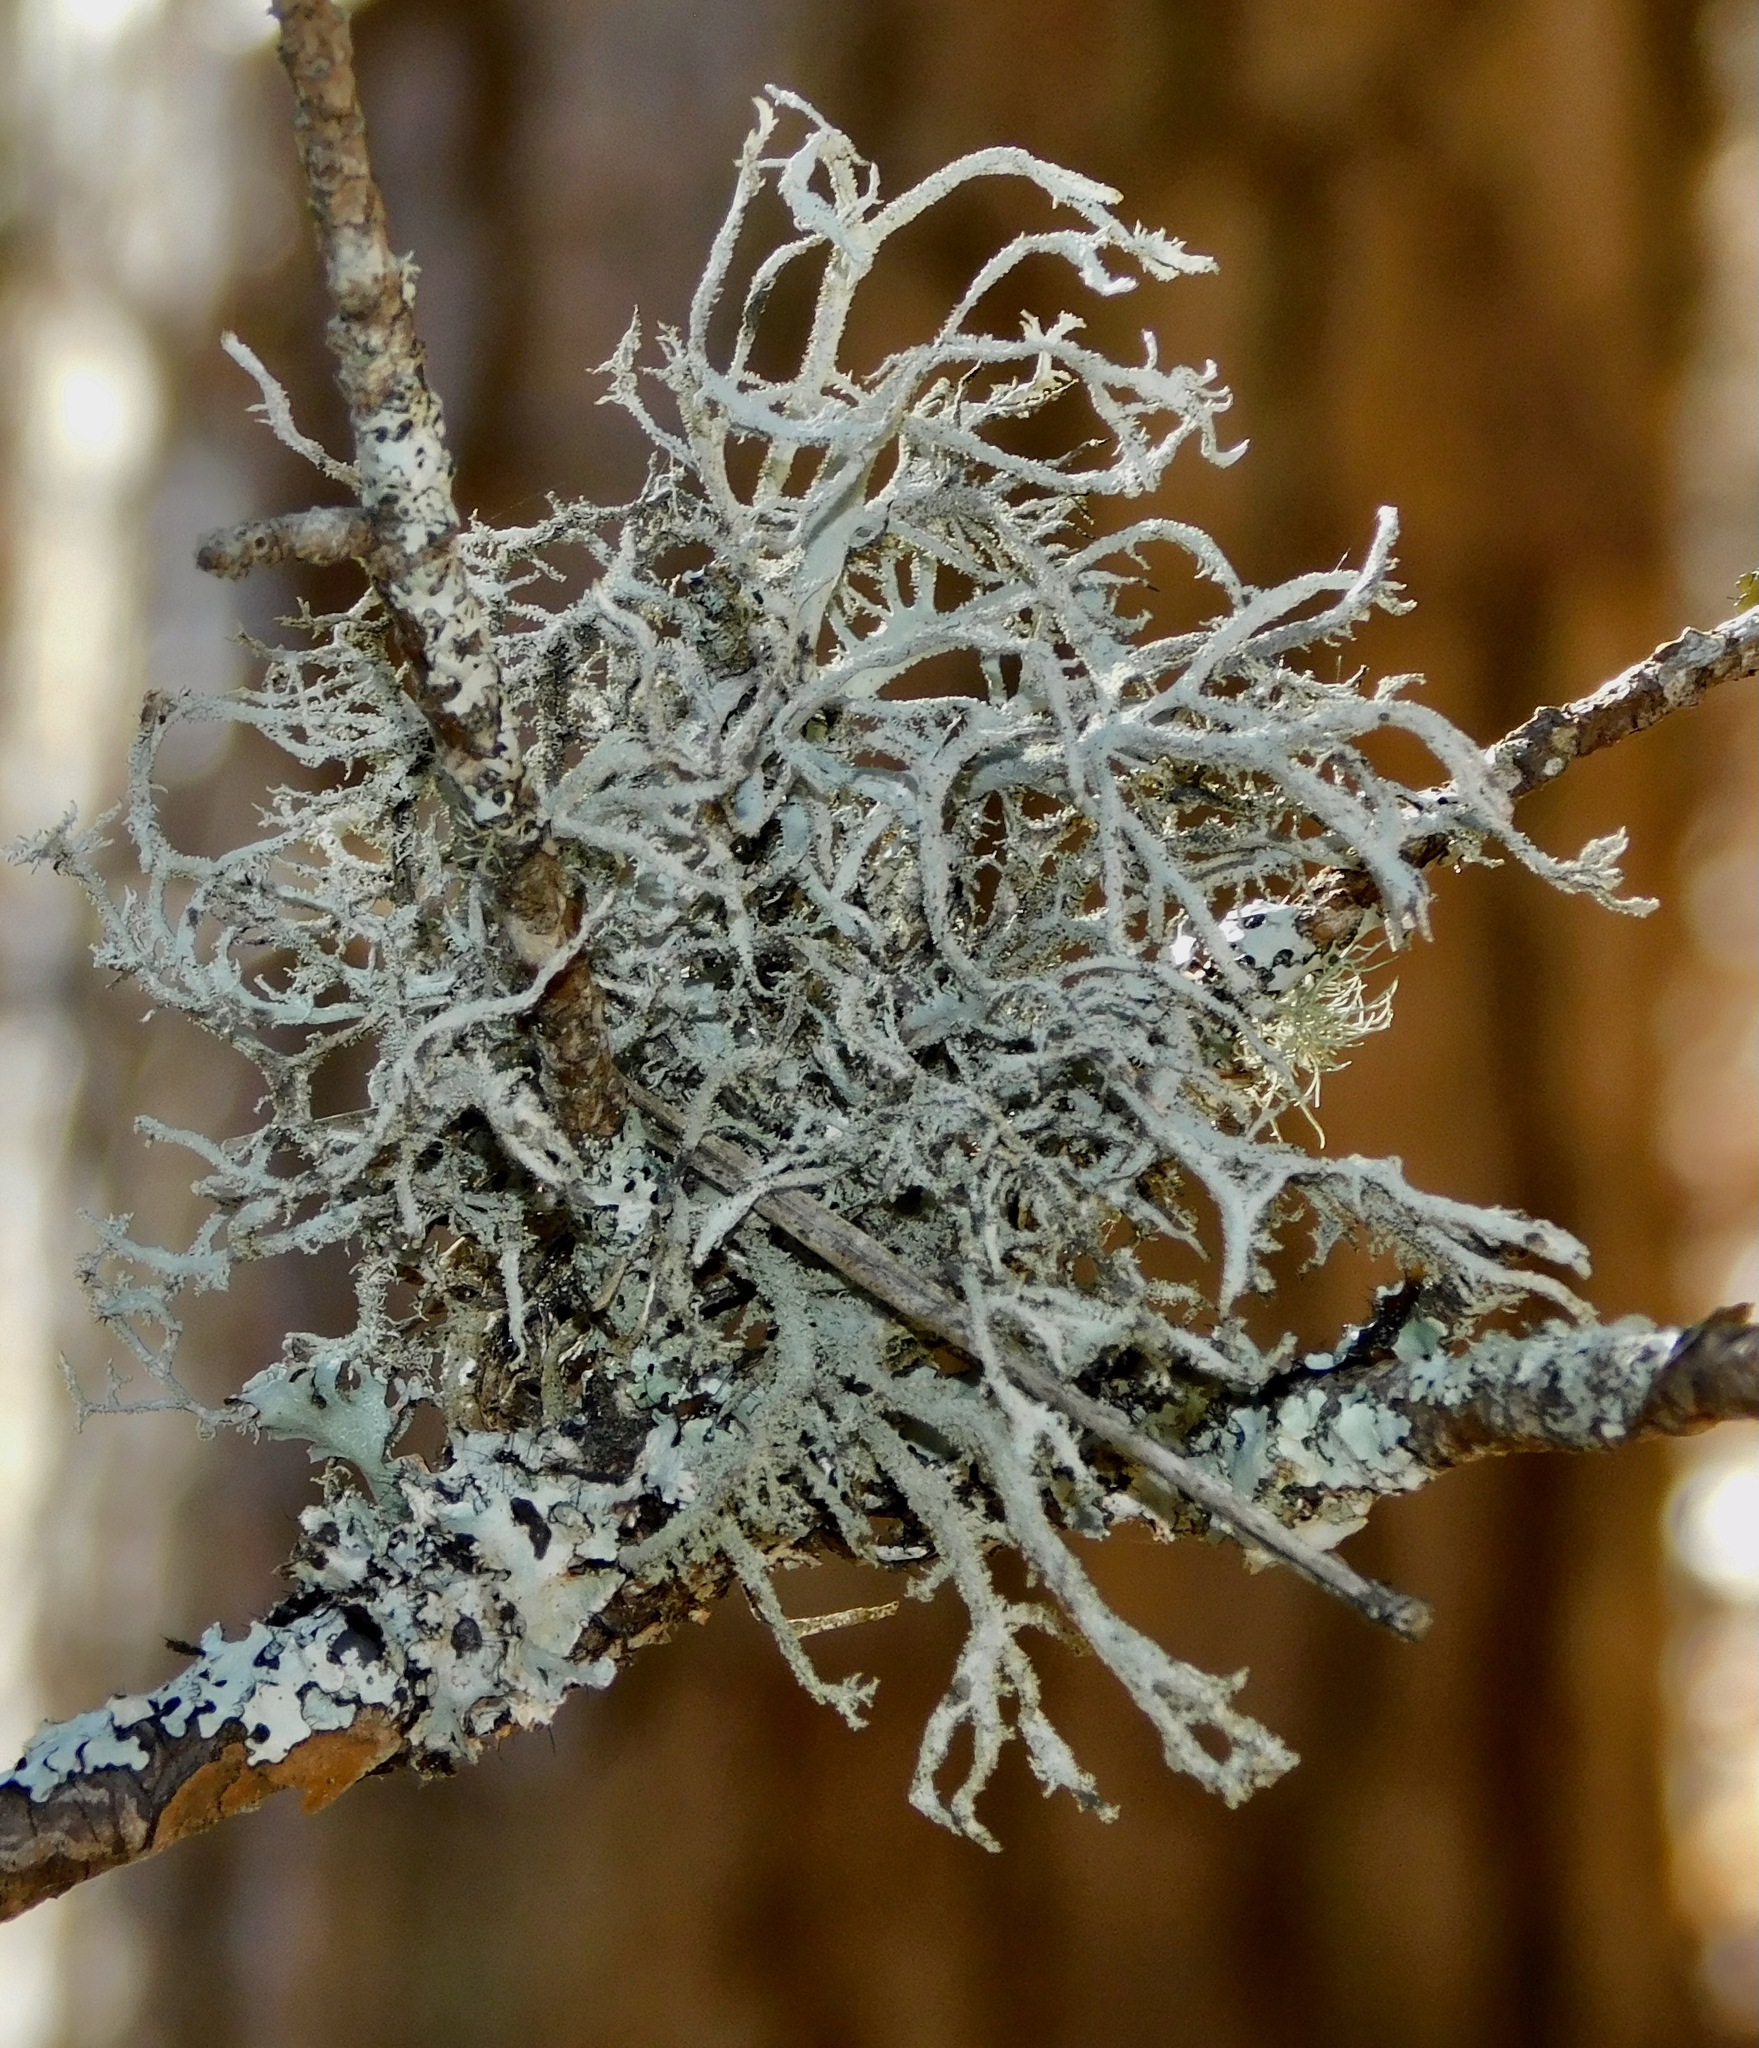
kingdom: Fungi
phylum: Ascomycota
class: Lecanoromycetes
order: Lecanorales
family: Parmeliaceae
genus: Pseudevernia
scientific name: Pseudevernia consocians
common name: Common antler lichen
